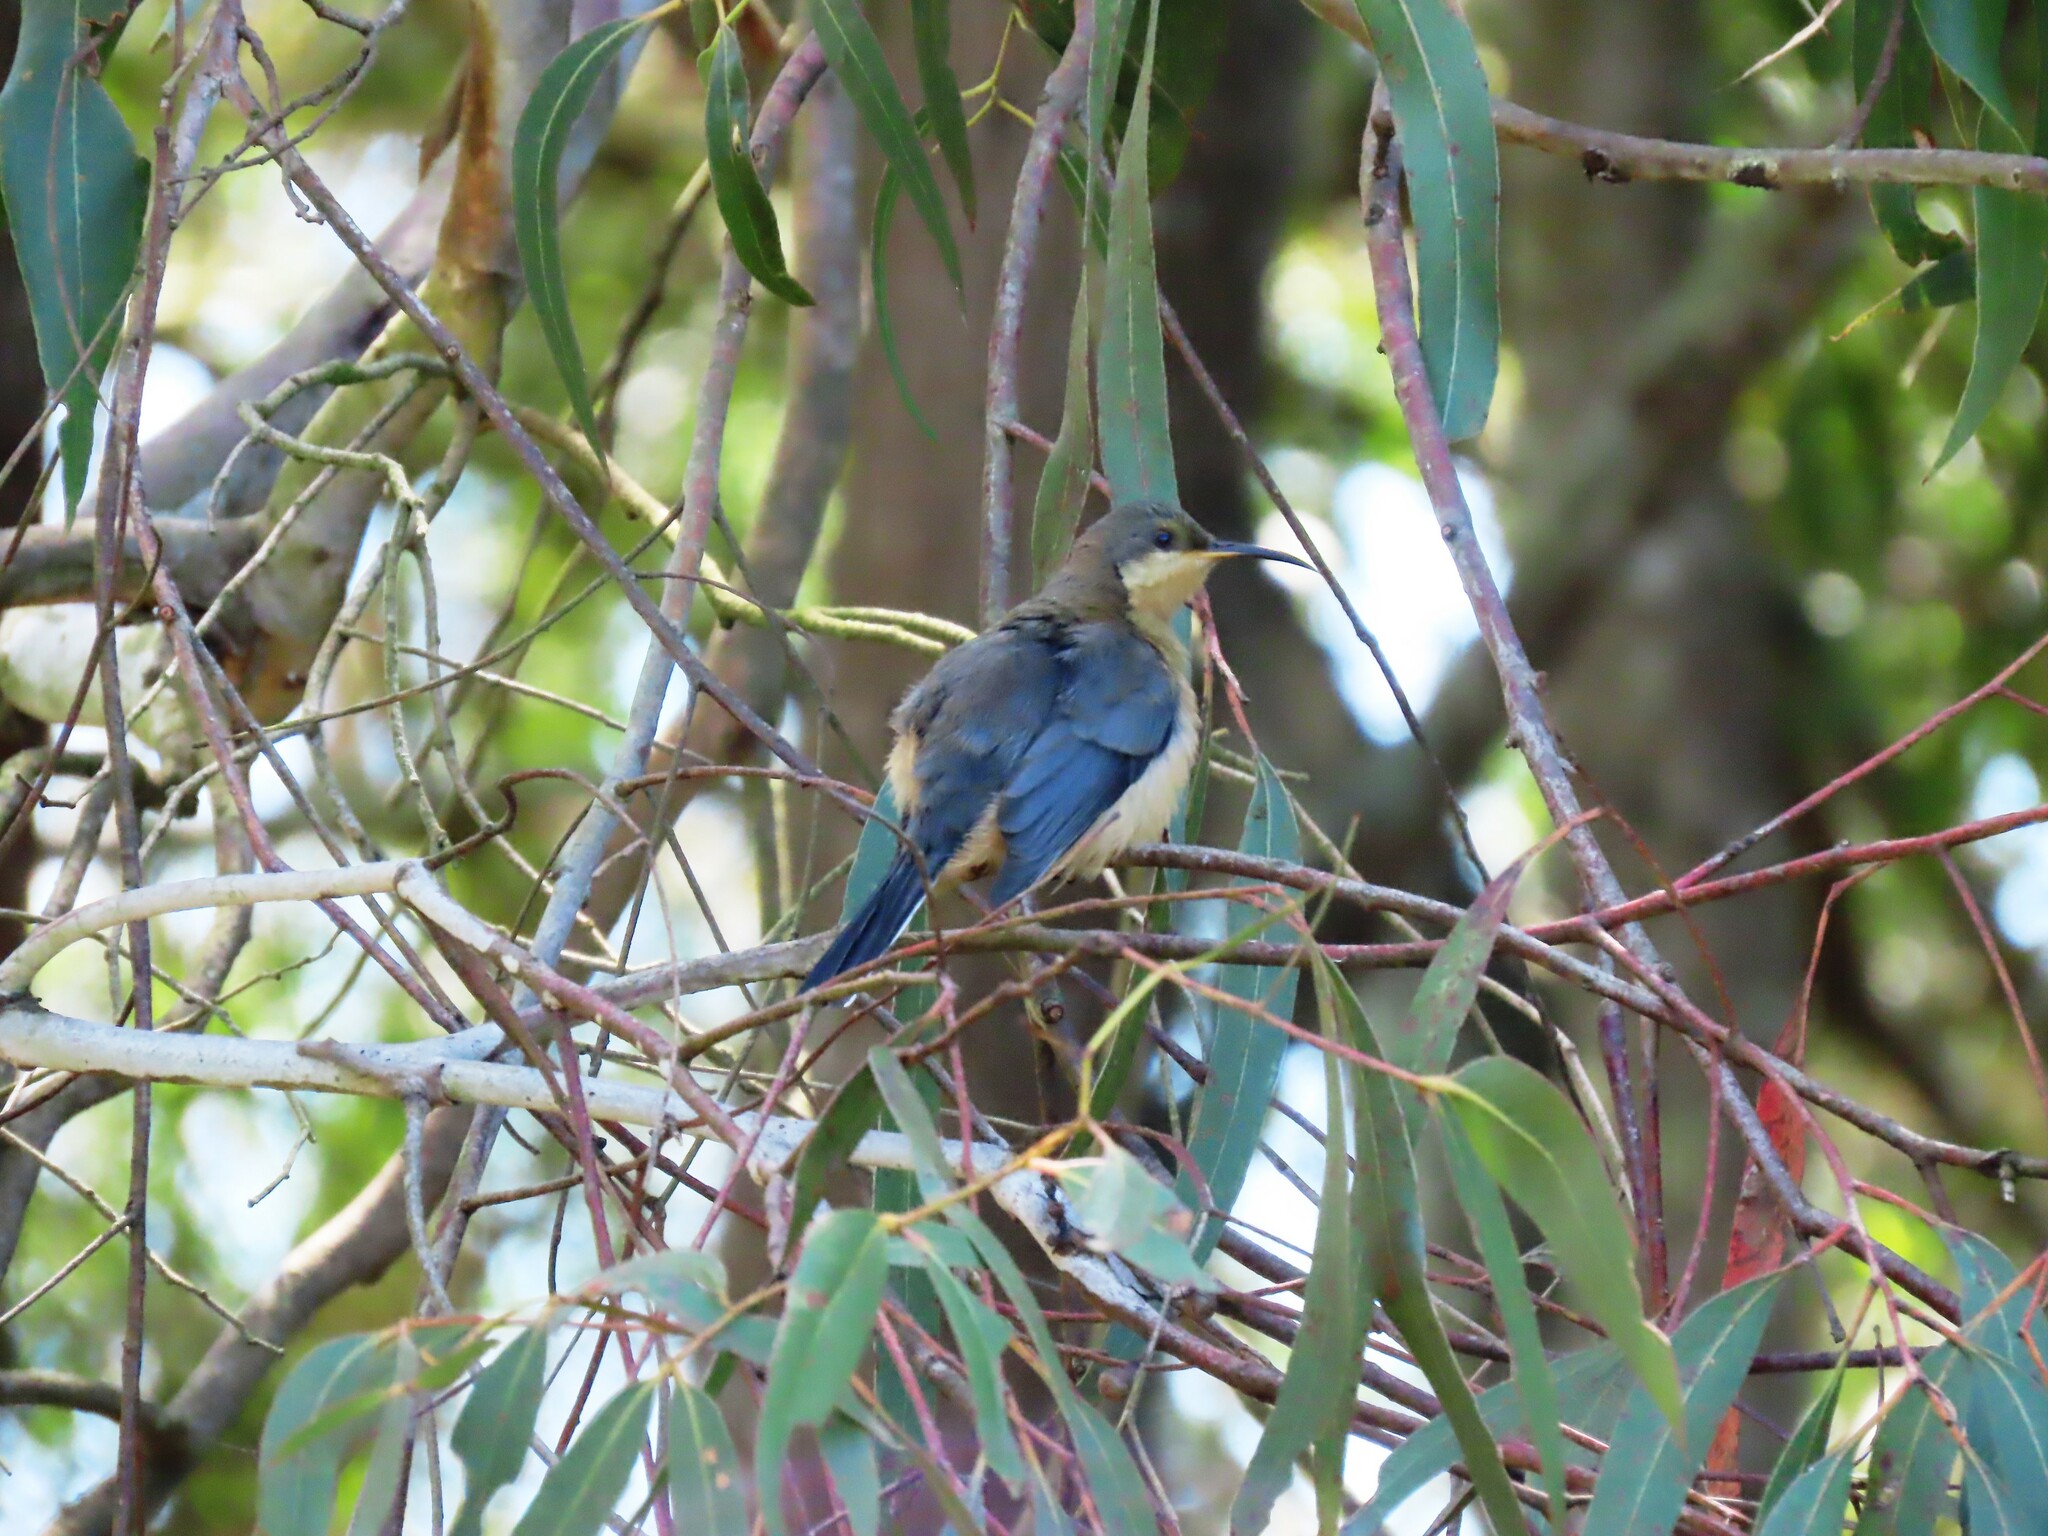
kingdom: Animalia
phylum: Chordata
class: Aves
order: Passeriformes
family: Meliphagidae
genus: Acanthorhynchus
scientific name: Acanthorhynchus tenuirostris
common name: Eastern spinebill
